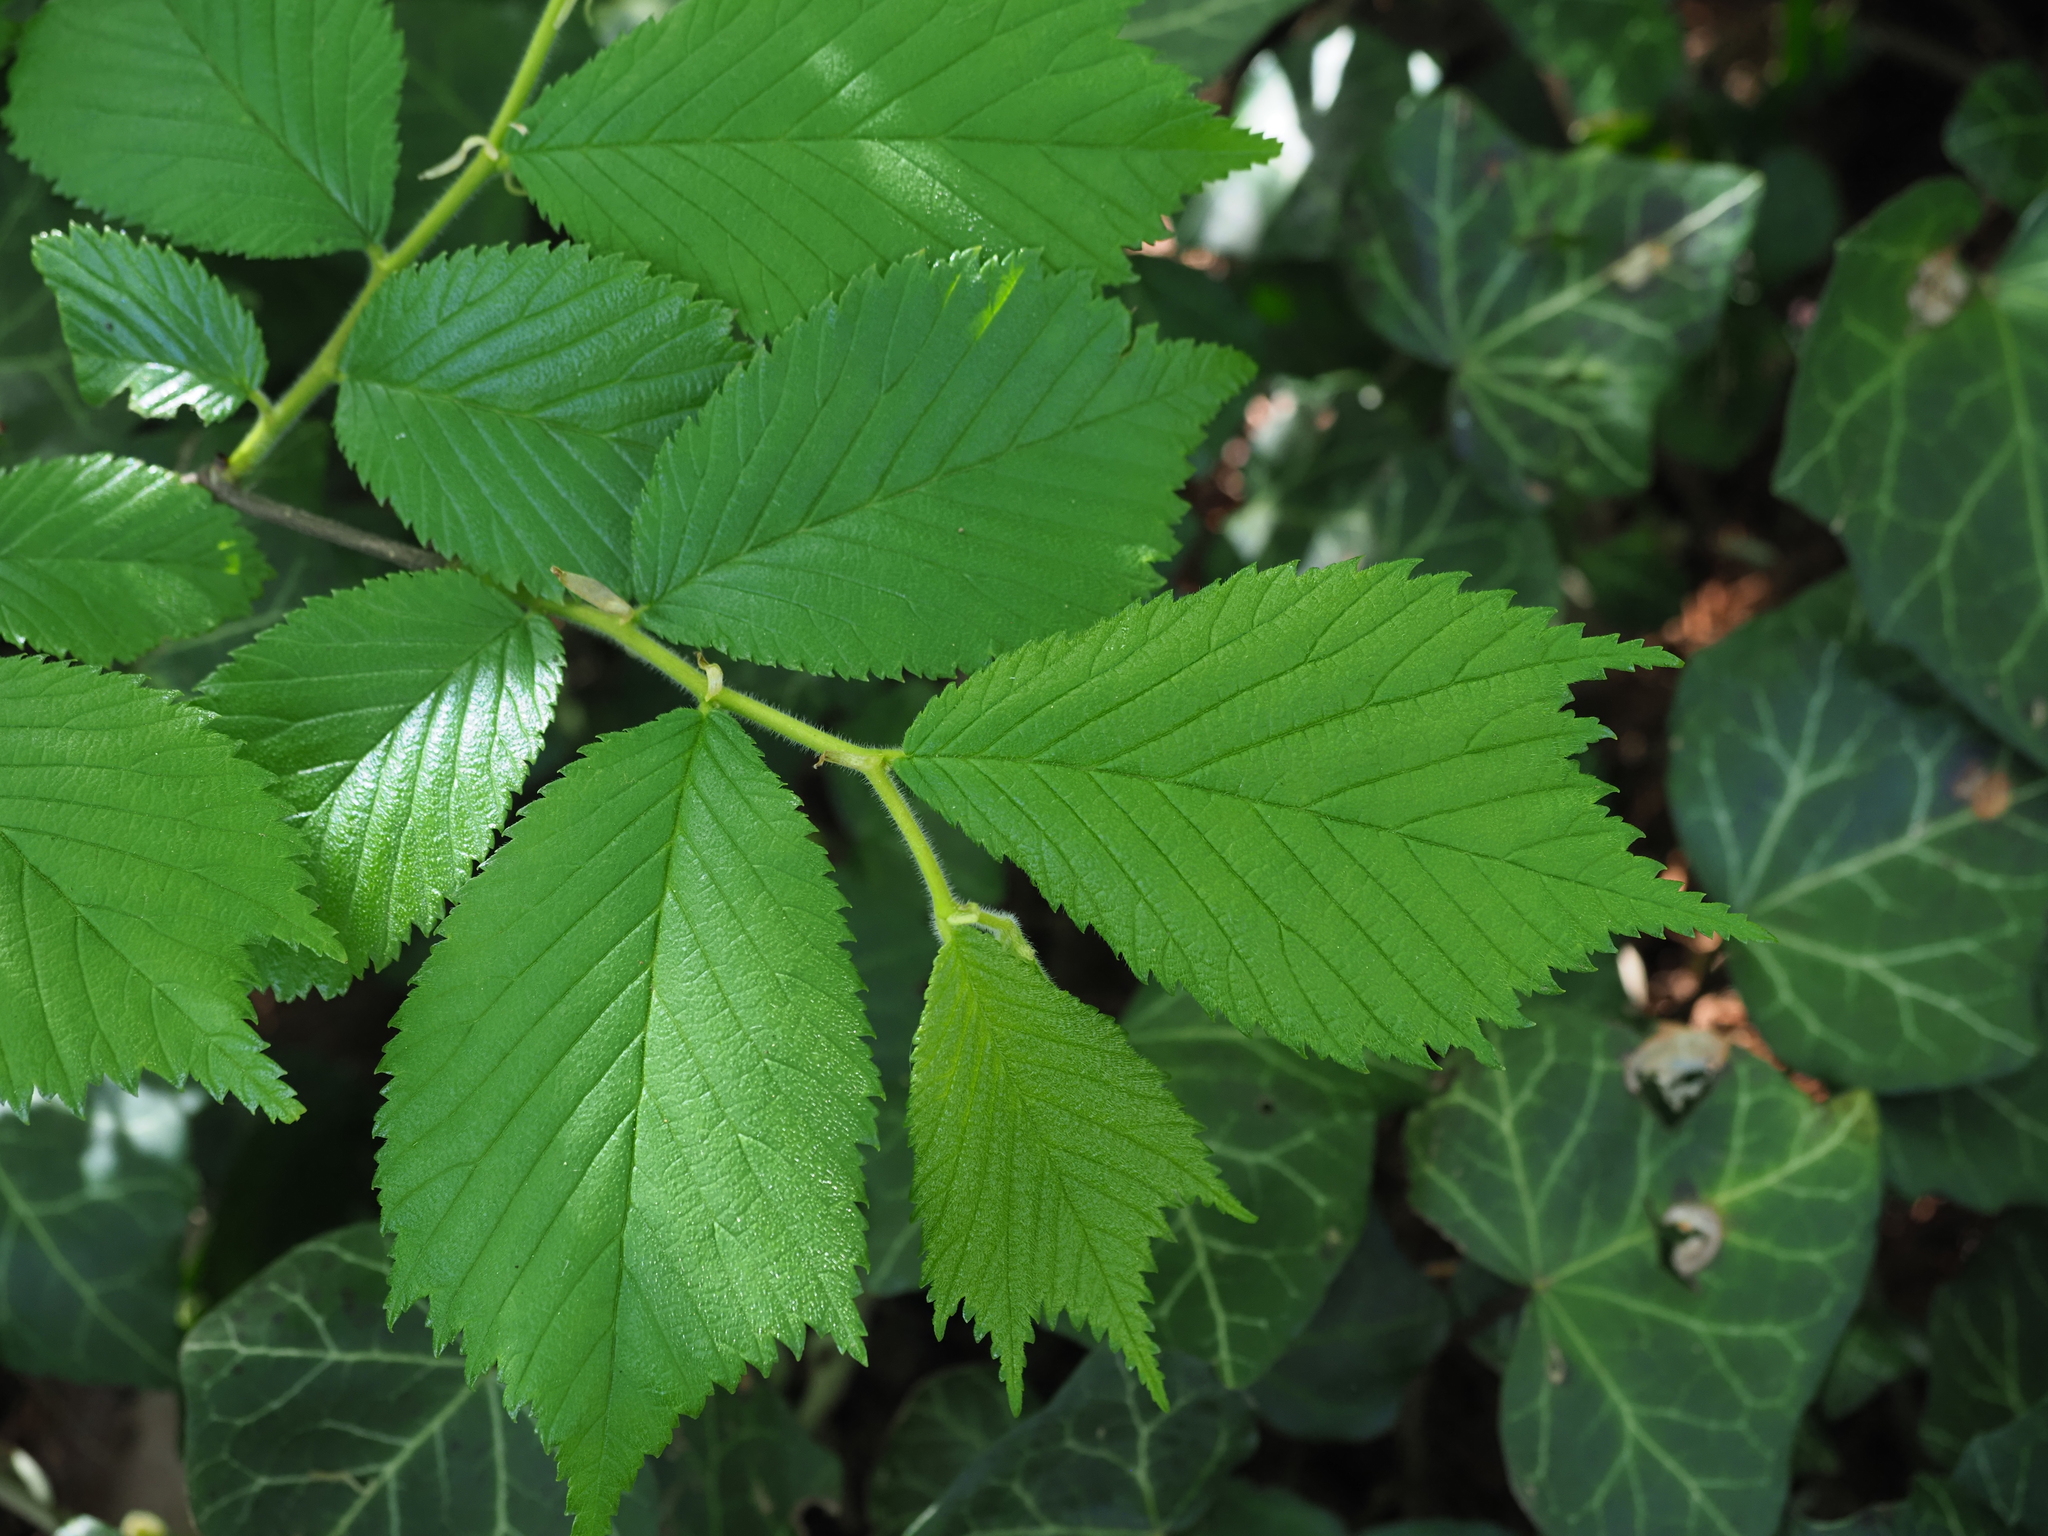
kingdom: Plantae
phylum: Tracheophyta
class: Magnoliopsida
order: Rosales
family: Ulmaceae
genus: Ulmus
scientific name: Ulmus glabra
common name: Wych elm
